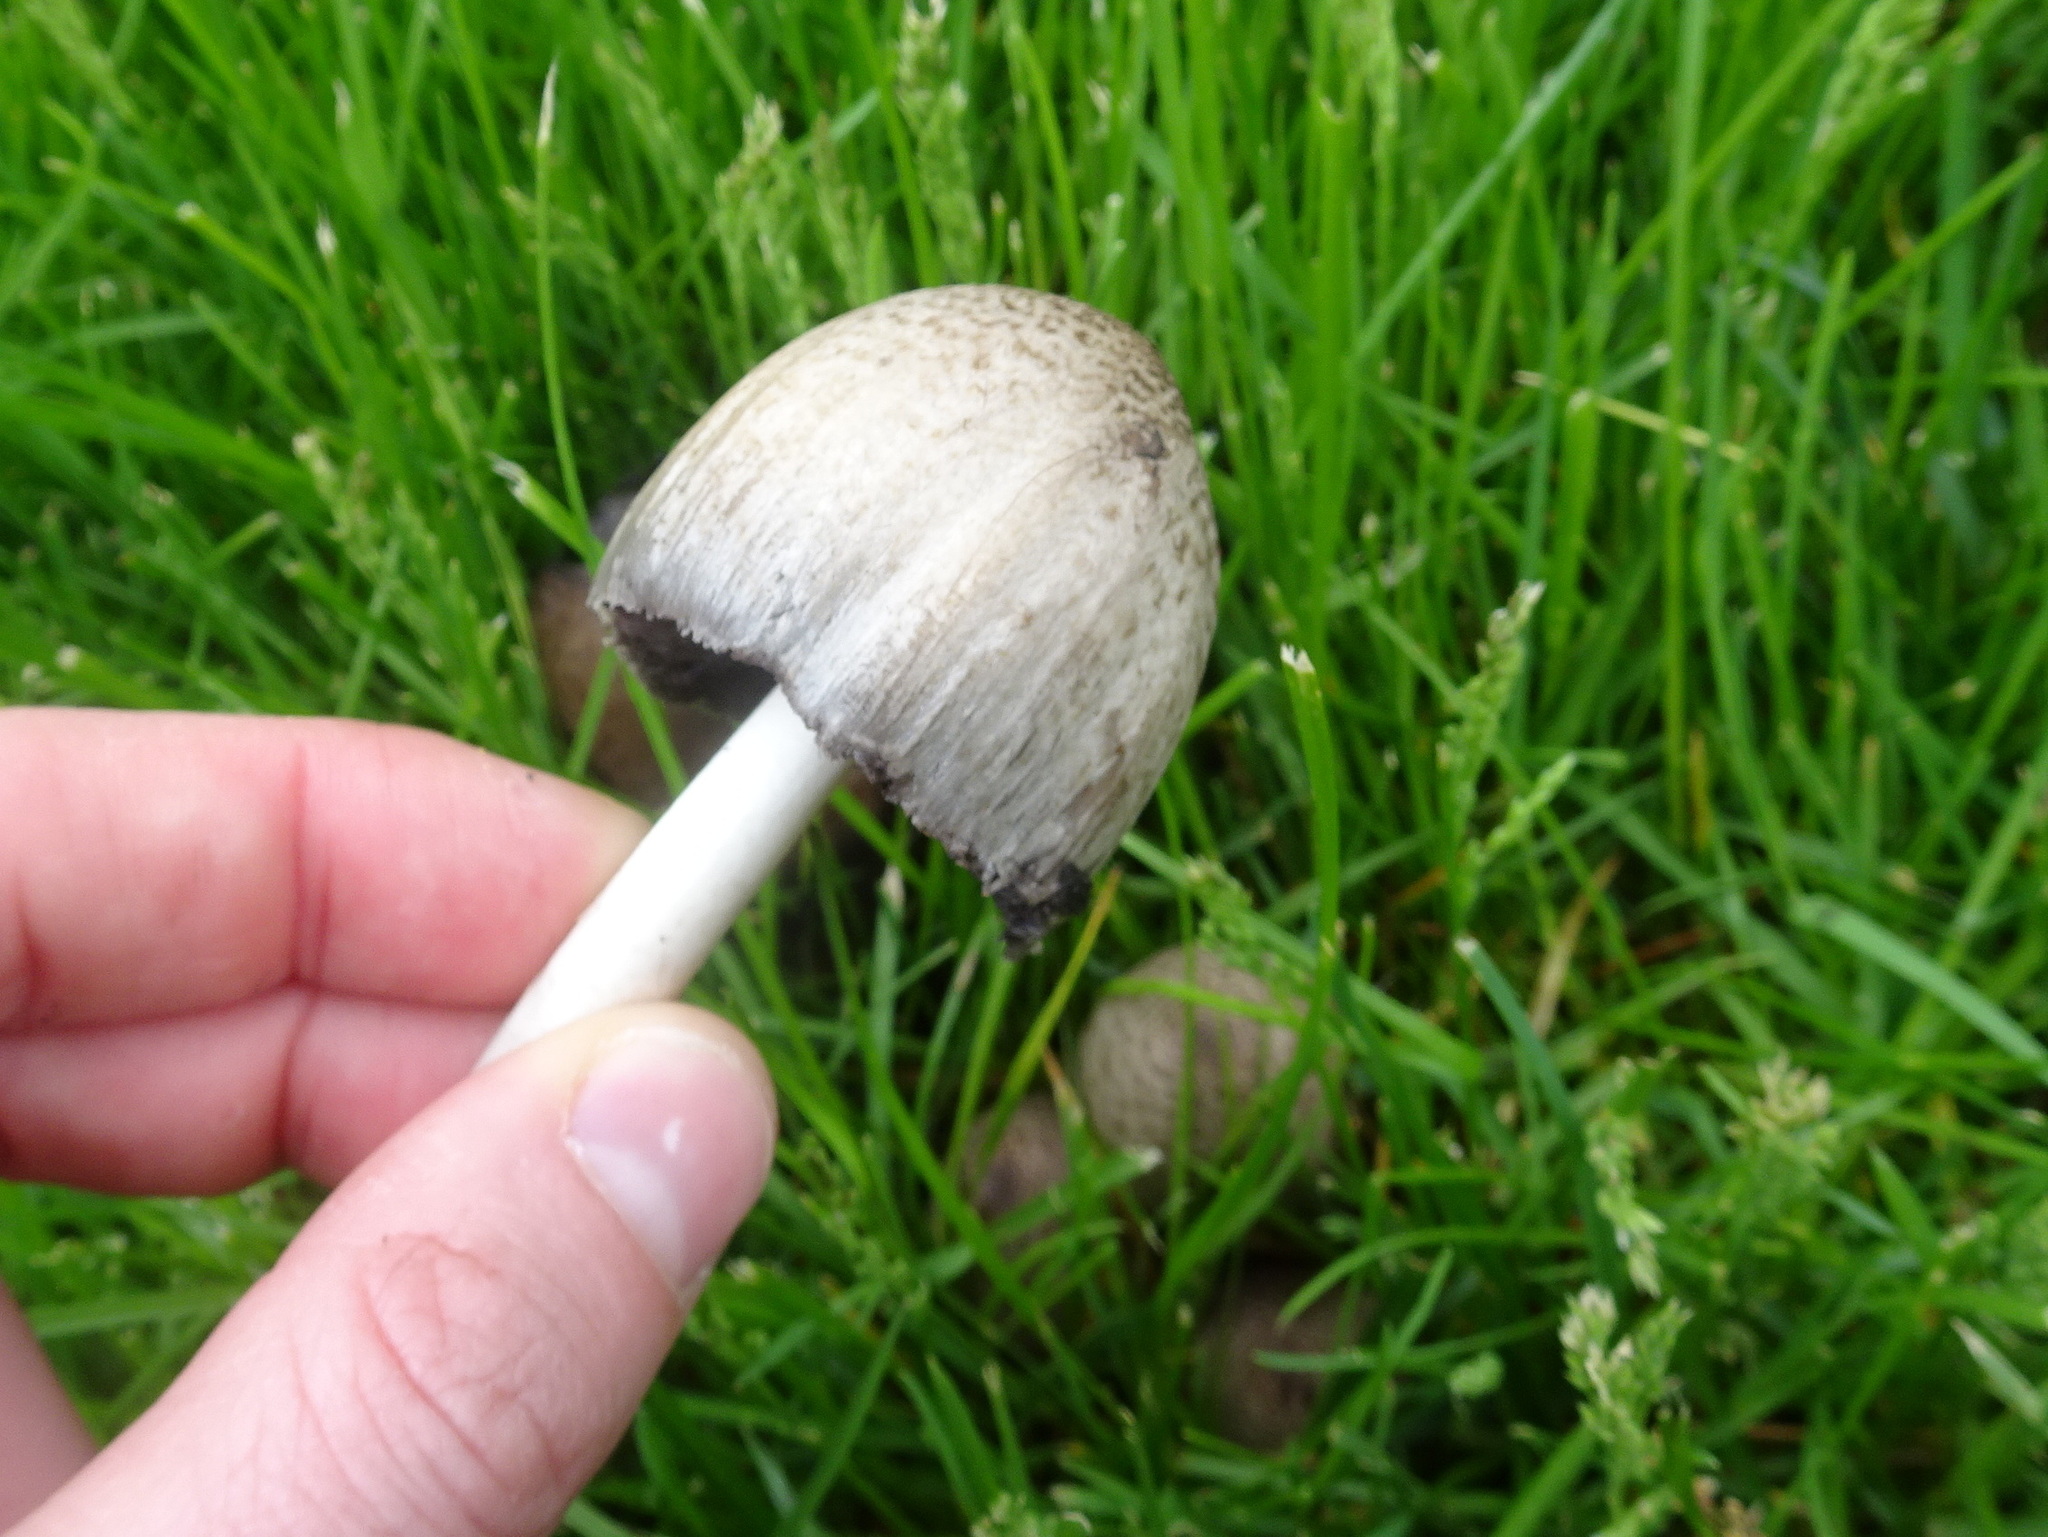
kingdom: Fungi
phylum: Basidiomycota
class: Agaricomycetes
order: Agaricales
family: Psathyrellaceae
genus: Coprinopsis
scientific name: Coprinopsis atramentaria
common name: Common ink-cap
